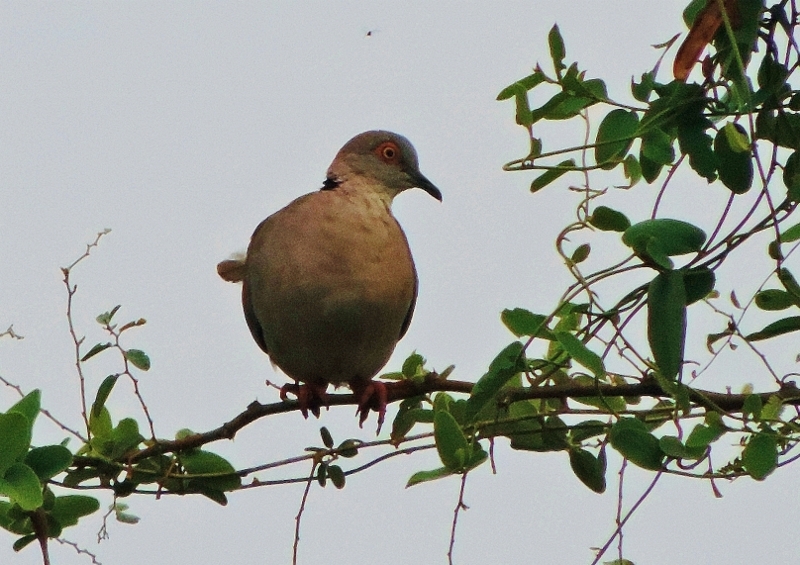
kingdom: Animalia
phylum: Chordata
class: Aves
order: Columbiformes
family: Columbidae
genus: Streptopelia
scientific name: Streptopelia decipiens
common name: Mourning collared dove
